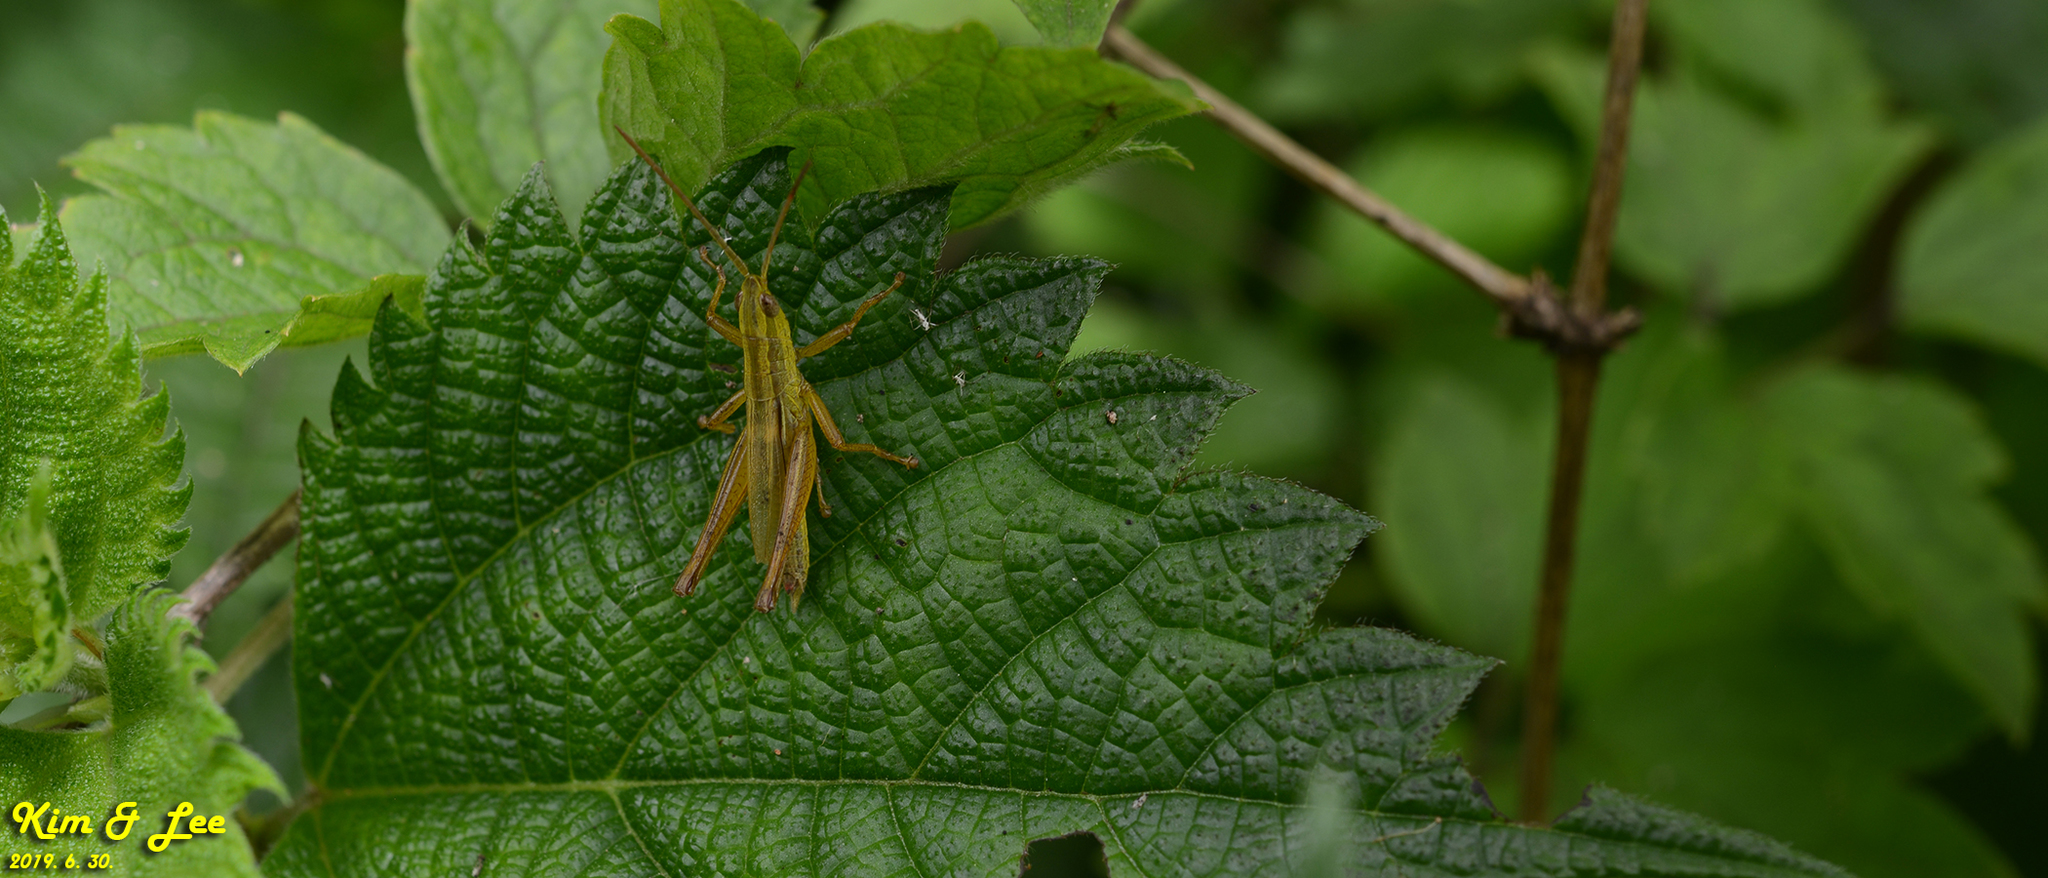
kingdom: Animalia
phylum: Arthropoda
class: Insecta
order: Orthoptera
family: Acrididae
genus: Mongolotettix
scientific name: Mongolotettix japonicus
